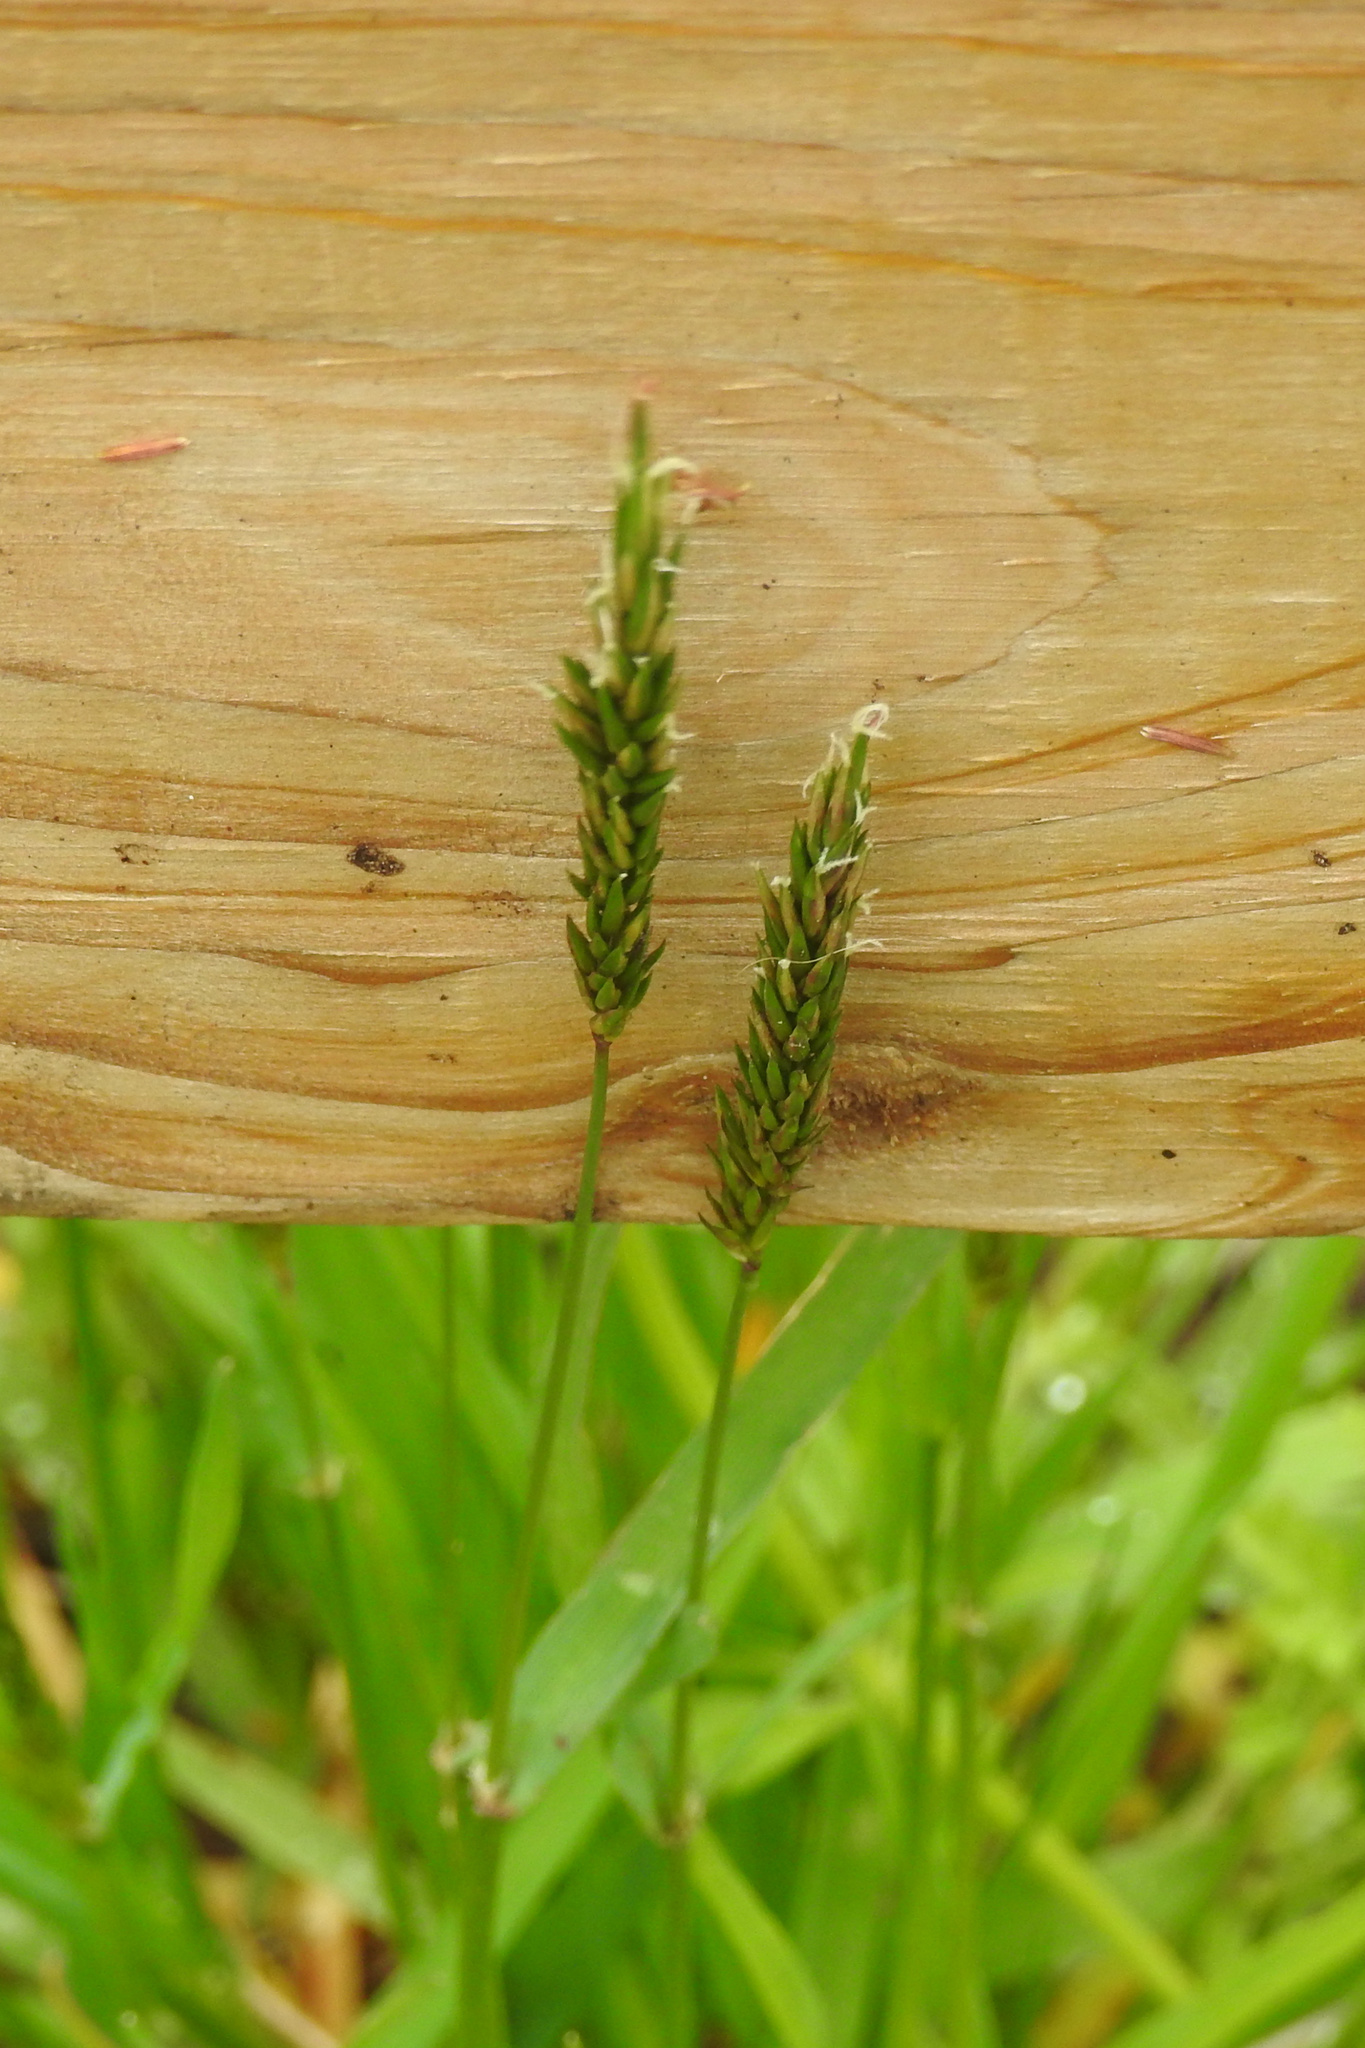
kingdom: Plantae
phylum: Tracheophyta
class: Liliopsida
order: Poales
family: Poaceae
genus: Anthoxanthum
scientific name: Anthoxanthum odoratum
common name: Sweet vernalgrass
